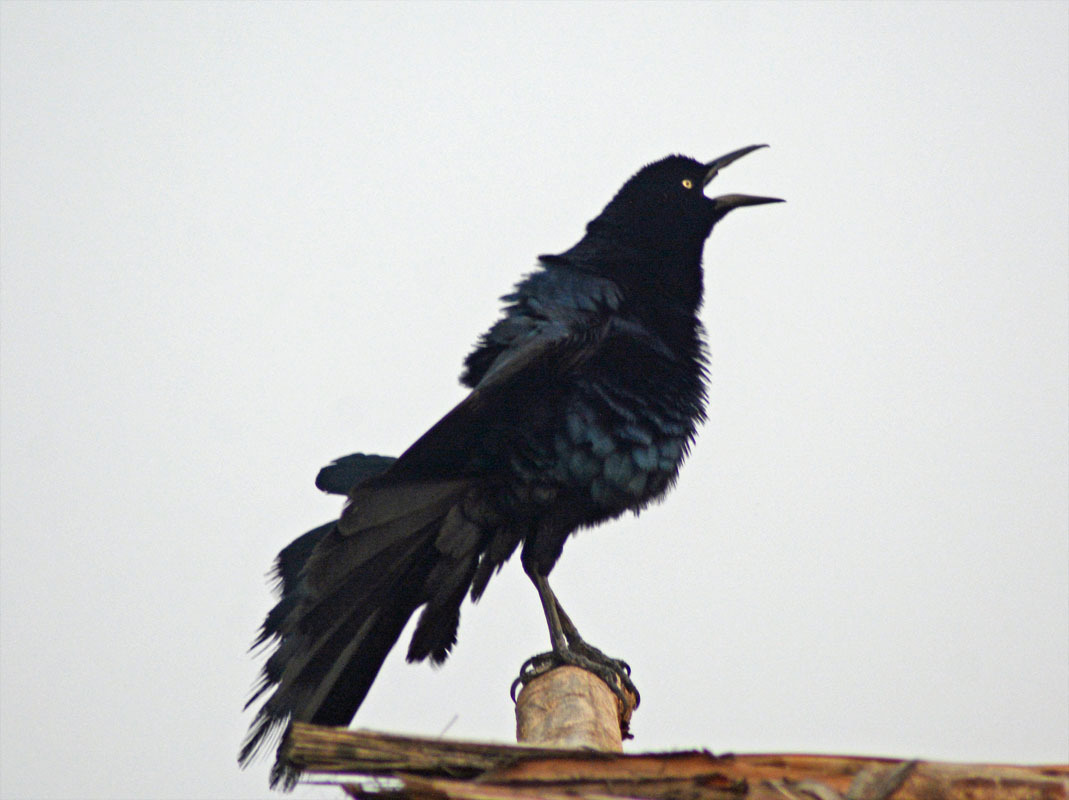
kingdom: Animalia
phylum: Chordata
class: Aves
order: Passeriformes
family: Icteridae
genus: Quiscalus
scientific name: Quiscalus mexicanus
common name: Great-tailed grackle
